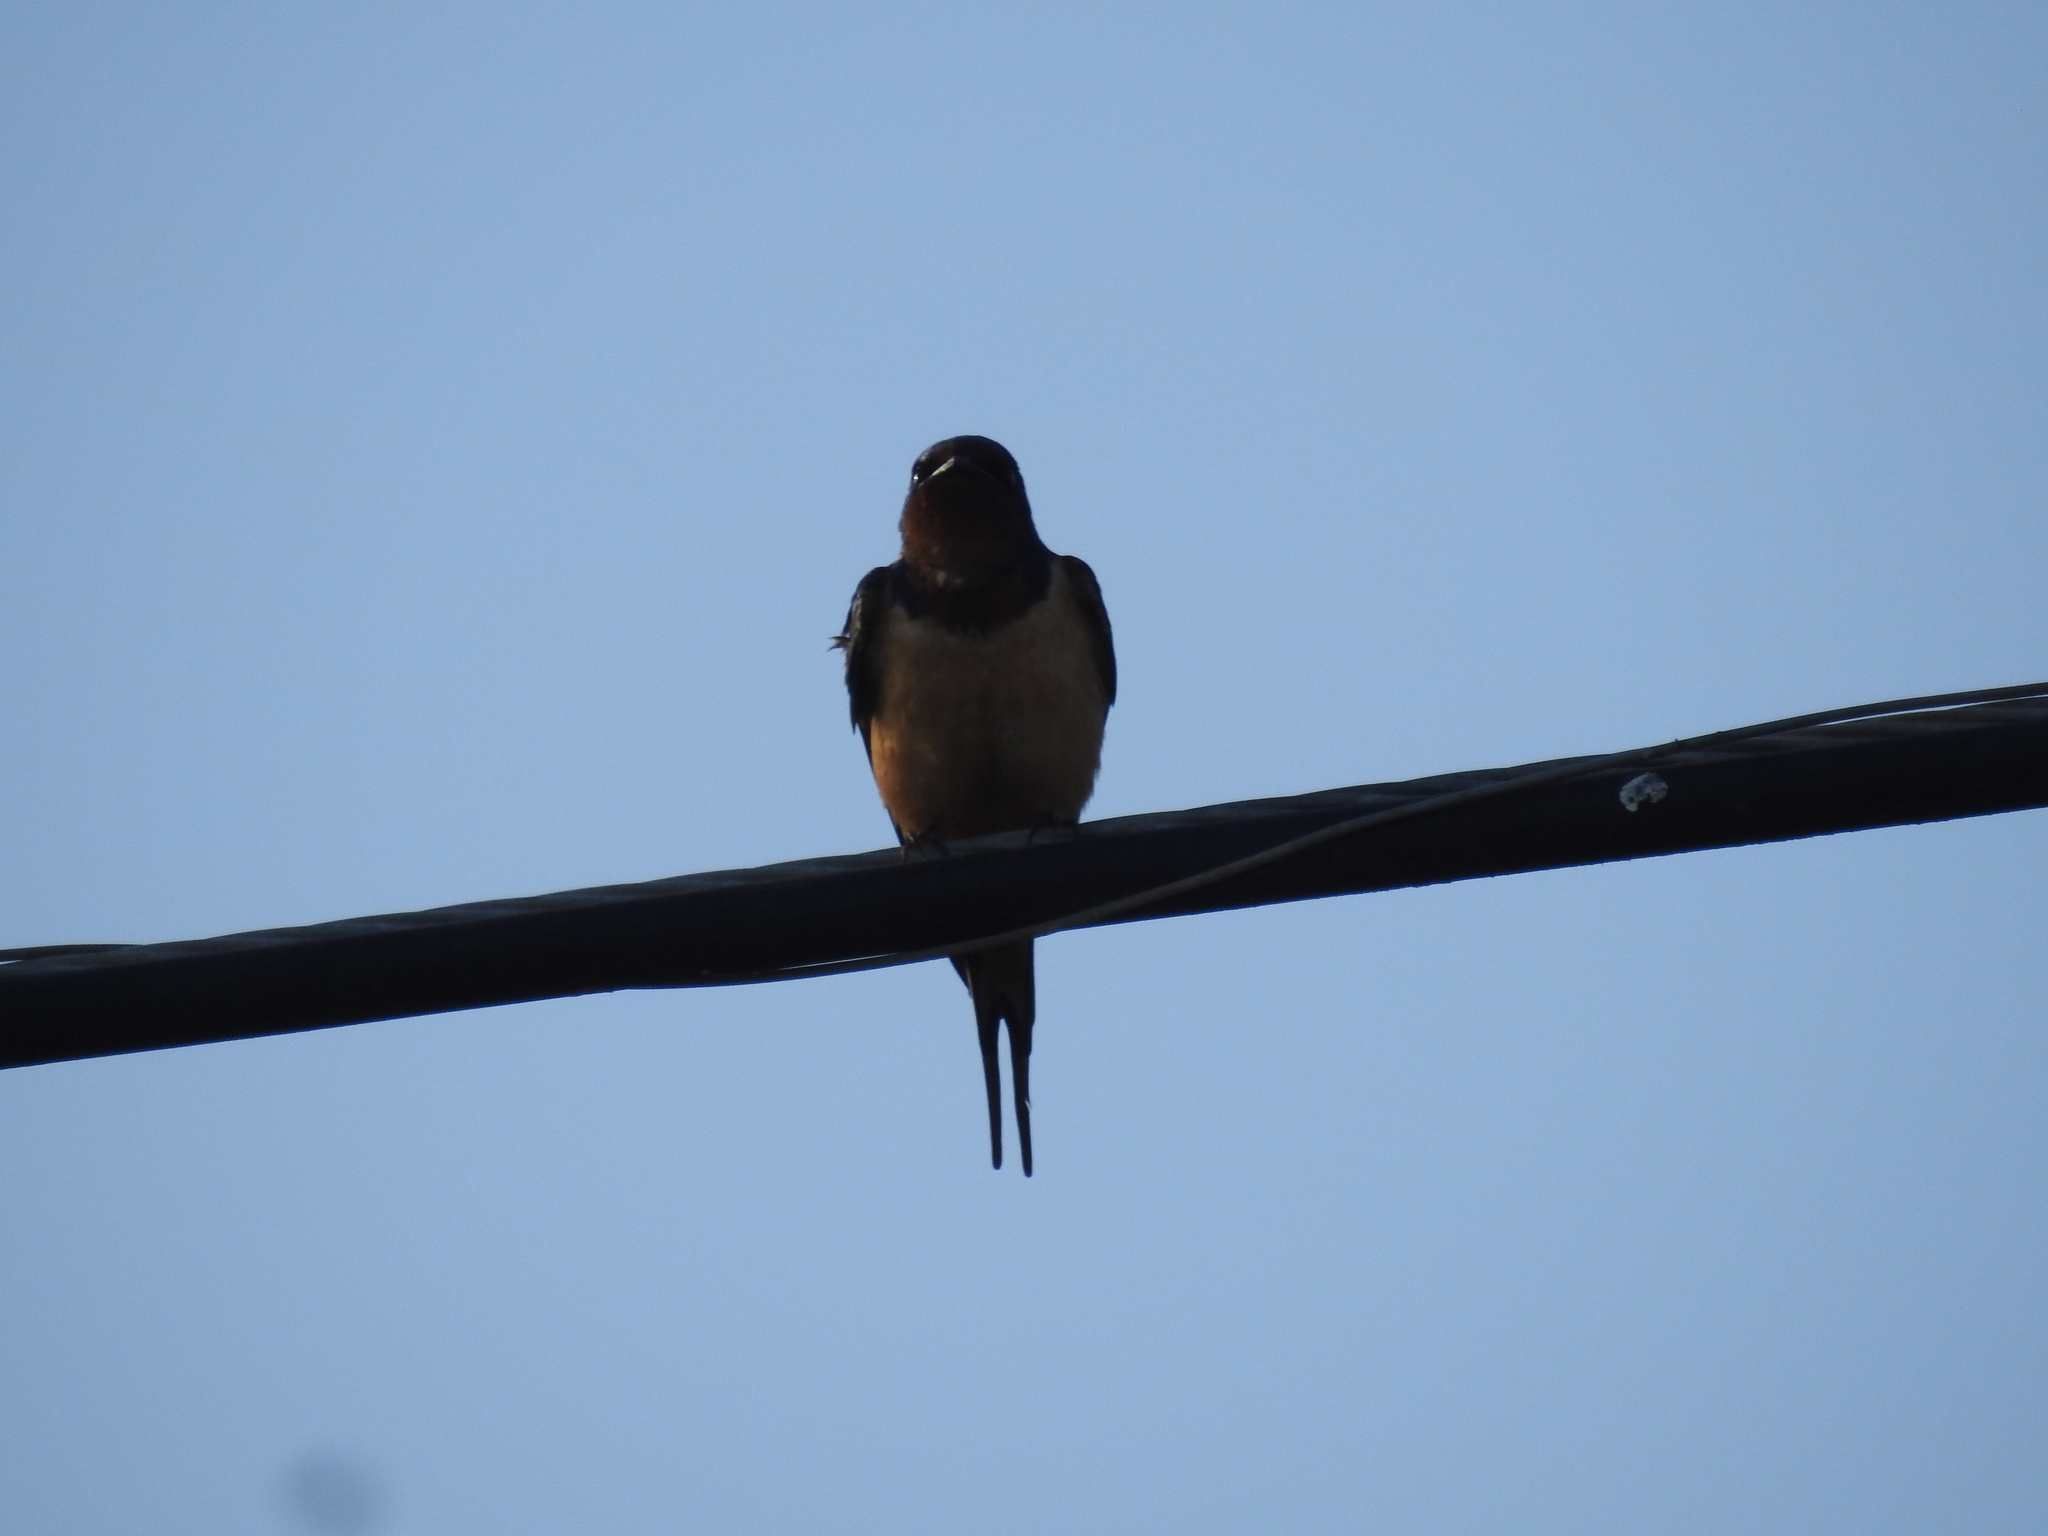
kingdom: Animalia
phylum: Chordata
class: Aves
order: Passeriformes
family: Hirundinidae
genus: Hirundo
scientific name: Hirundo rustica
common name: Barn swallow
